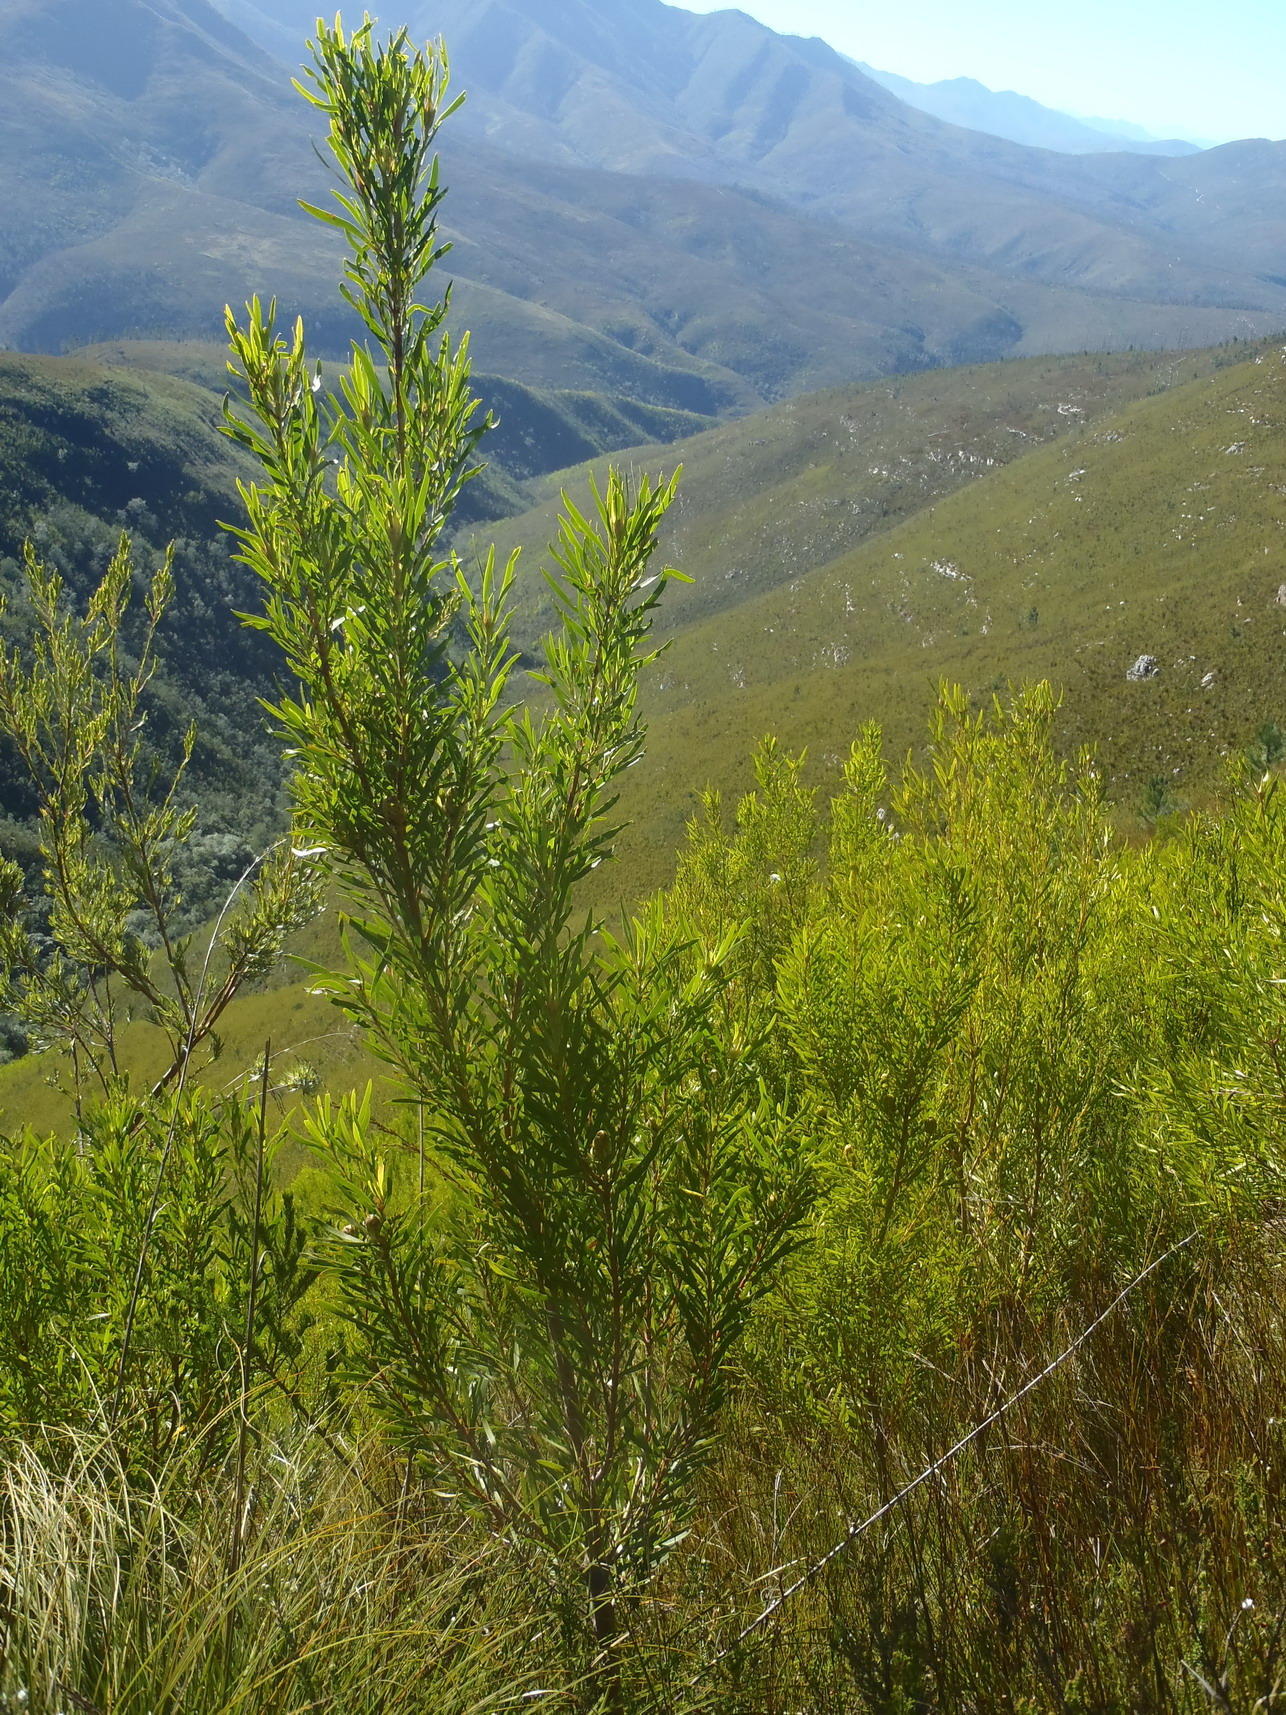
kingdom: Plantae
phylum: Tracheophyta
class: Magnoliopsida
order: Proteales
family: Proteaceae
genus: Leucadendron
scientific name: Leucadendron eucalyptifolium
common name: Gum-leaved conebush
